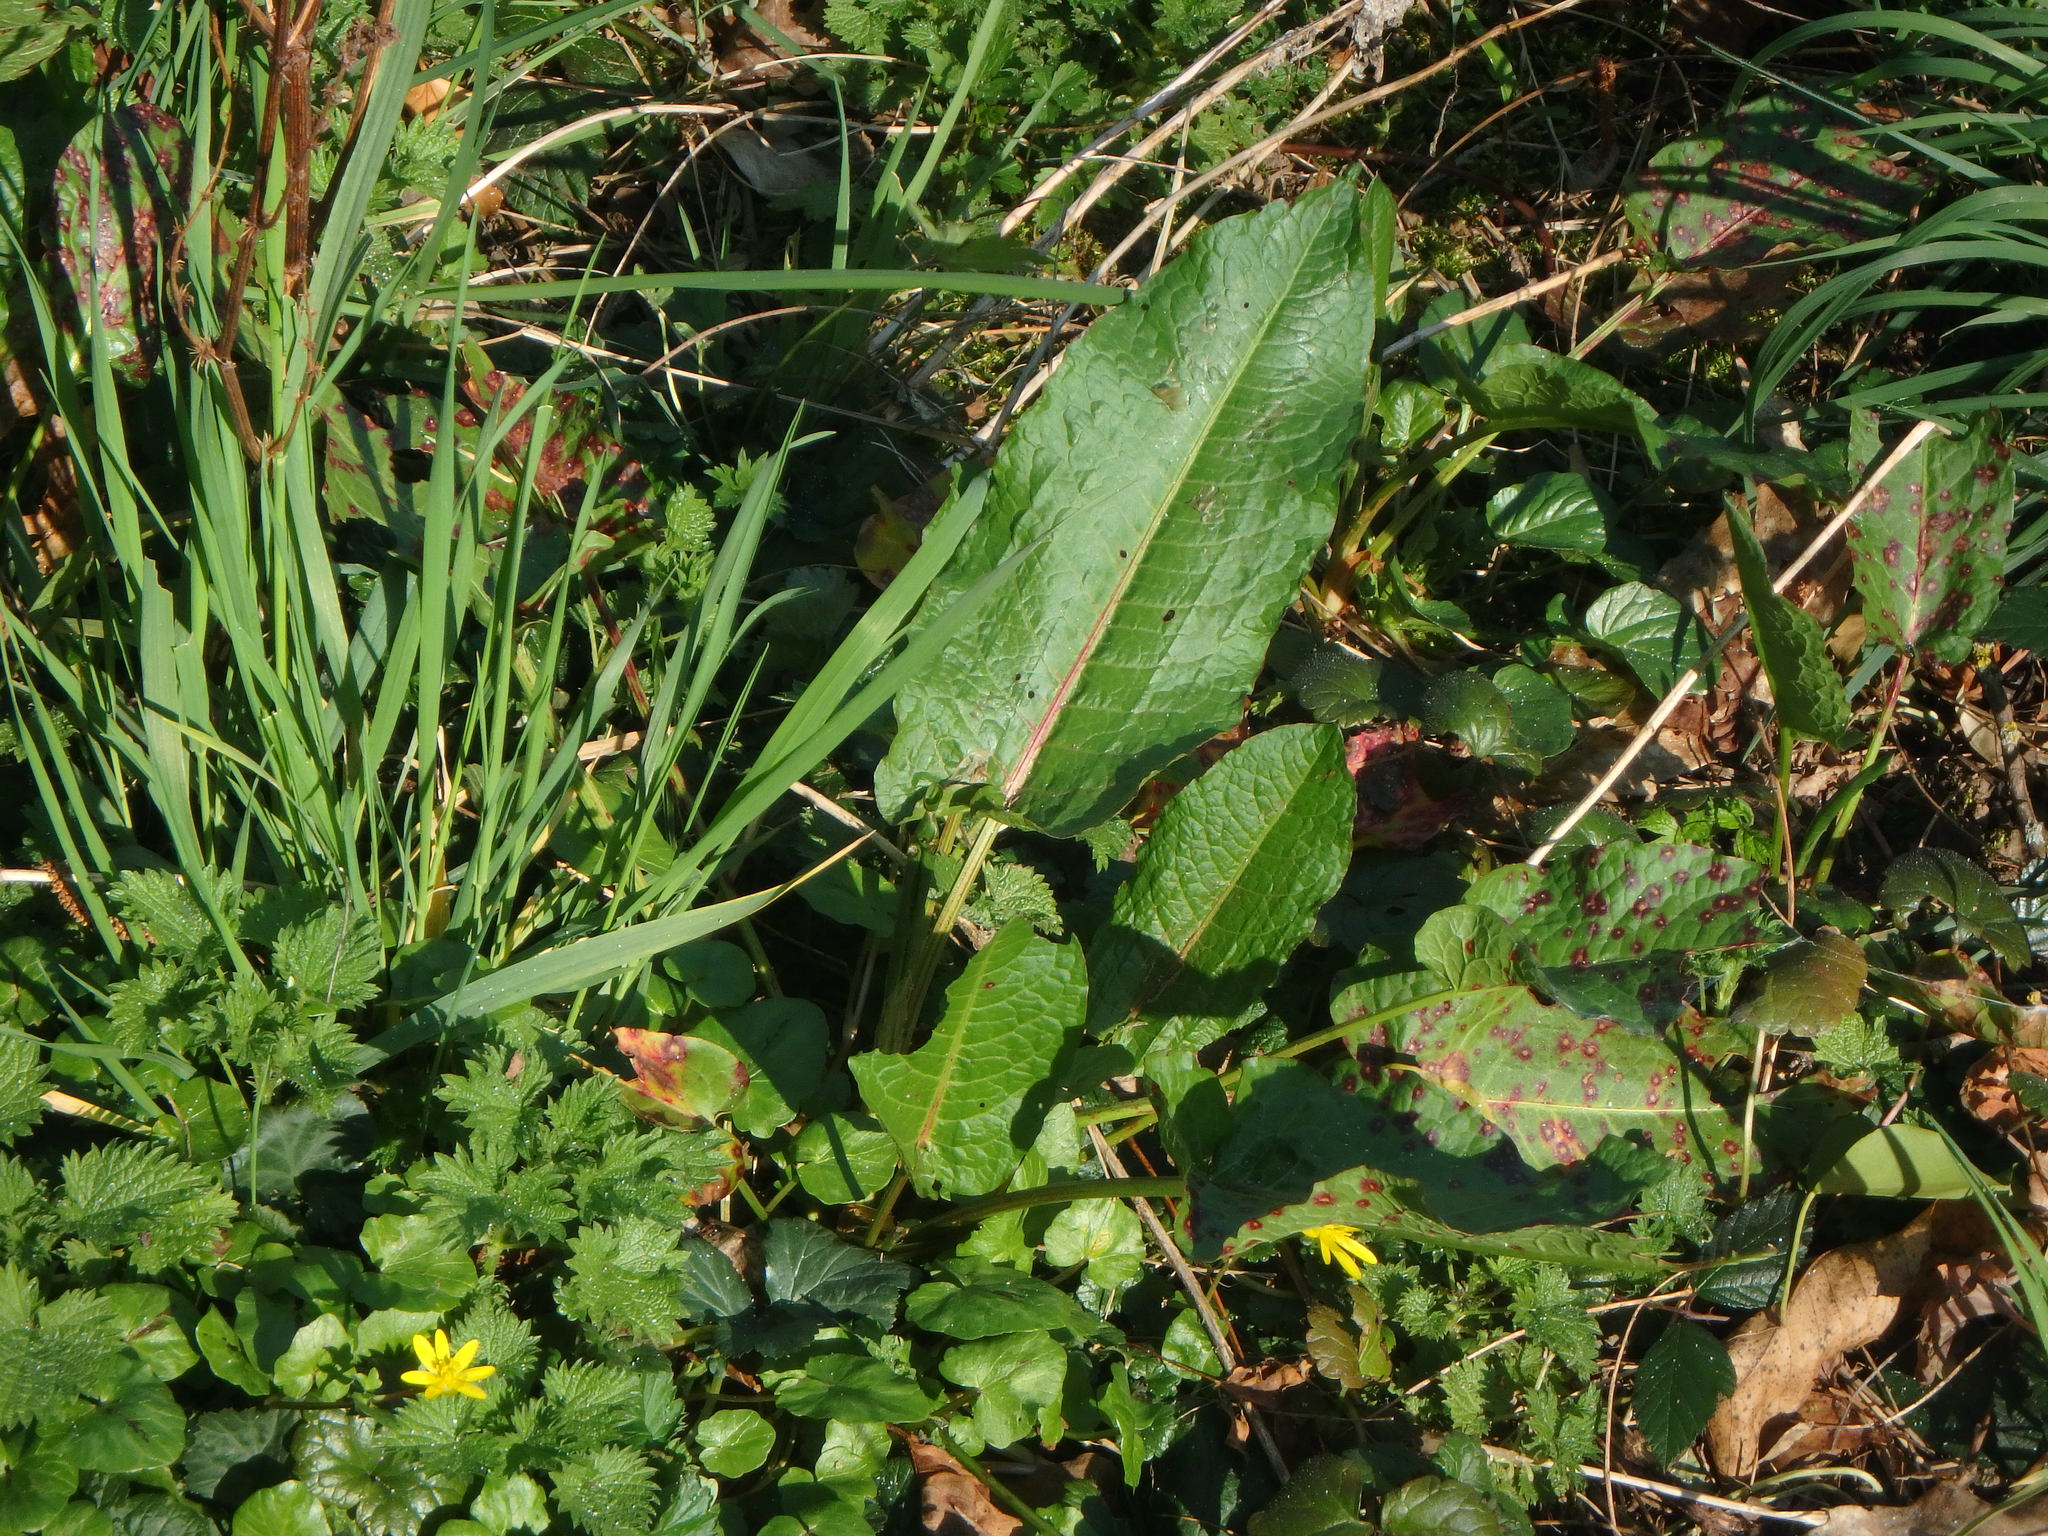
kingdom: Plantae
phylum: Tracheophyta
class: Magnoliopsida
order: Caryophyllales
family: Polygonaceae
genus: Rumex
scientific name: Rumex obtusifolius
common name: Bitter dock
